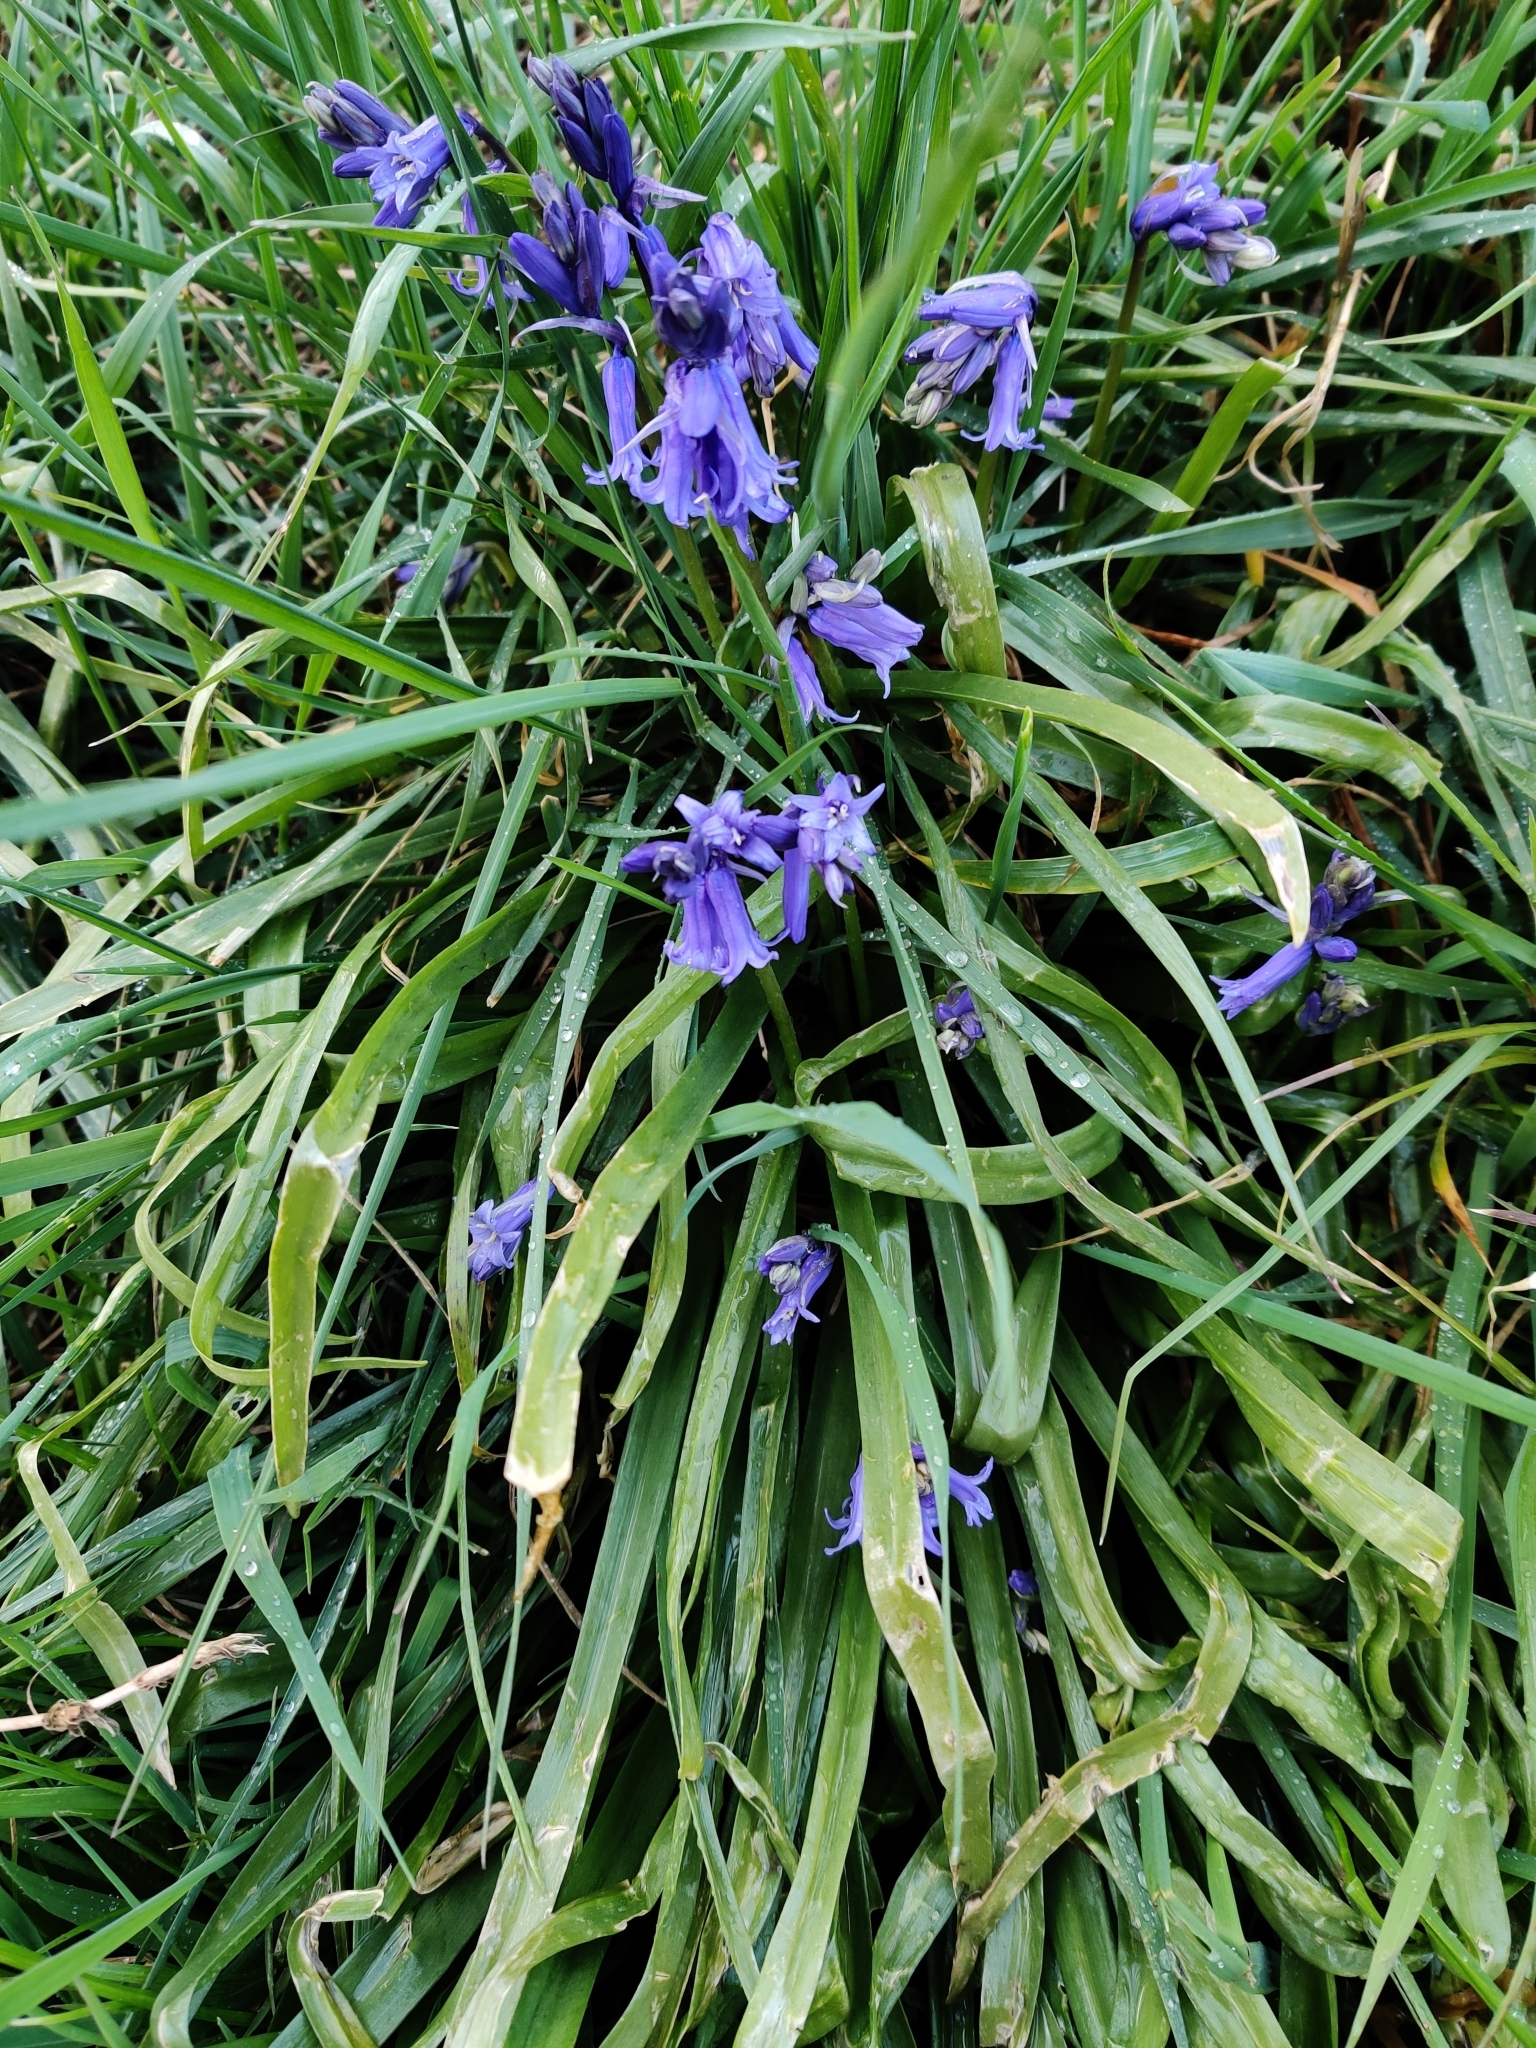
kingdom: Plantae
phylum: Tracheophyta
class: Liliopsida
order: Asparagales
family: Asparagaceae
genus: Hyacinthoides
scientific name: Hyacinthoides non-scripta
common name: Bluebell
